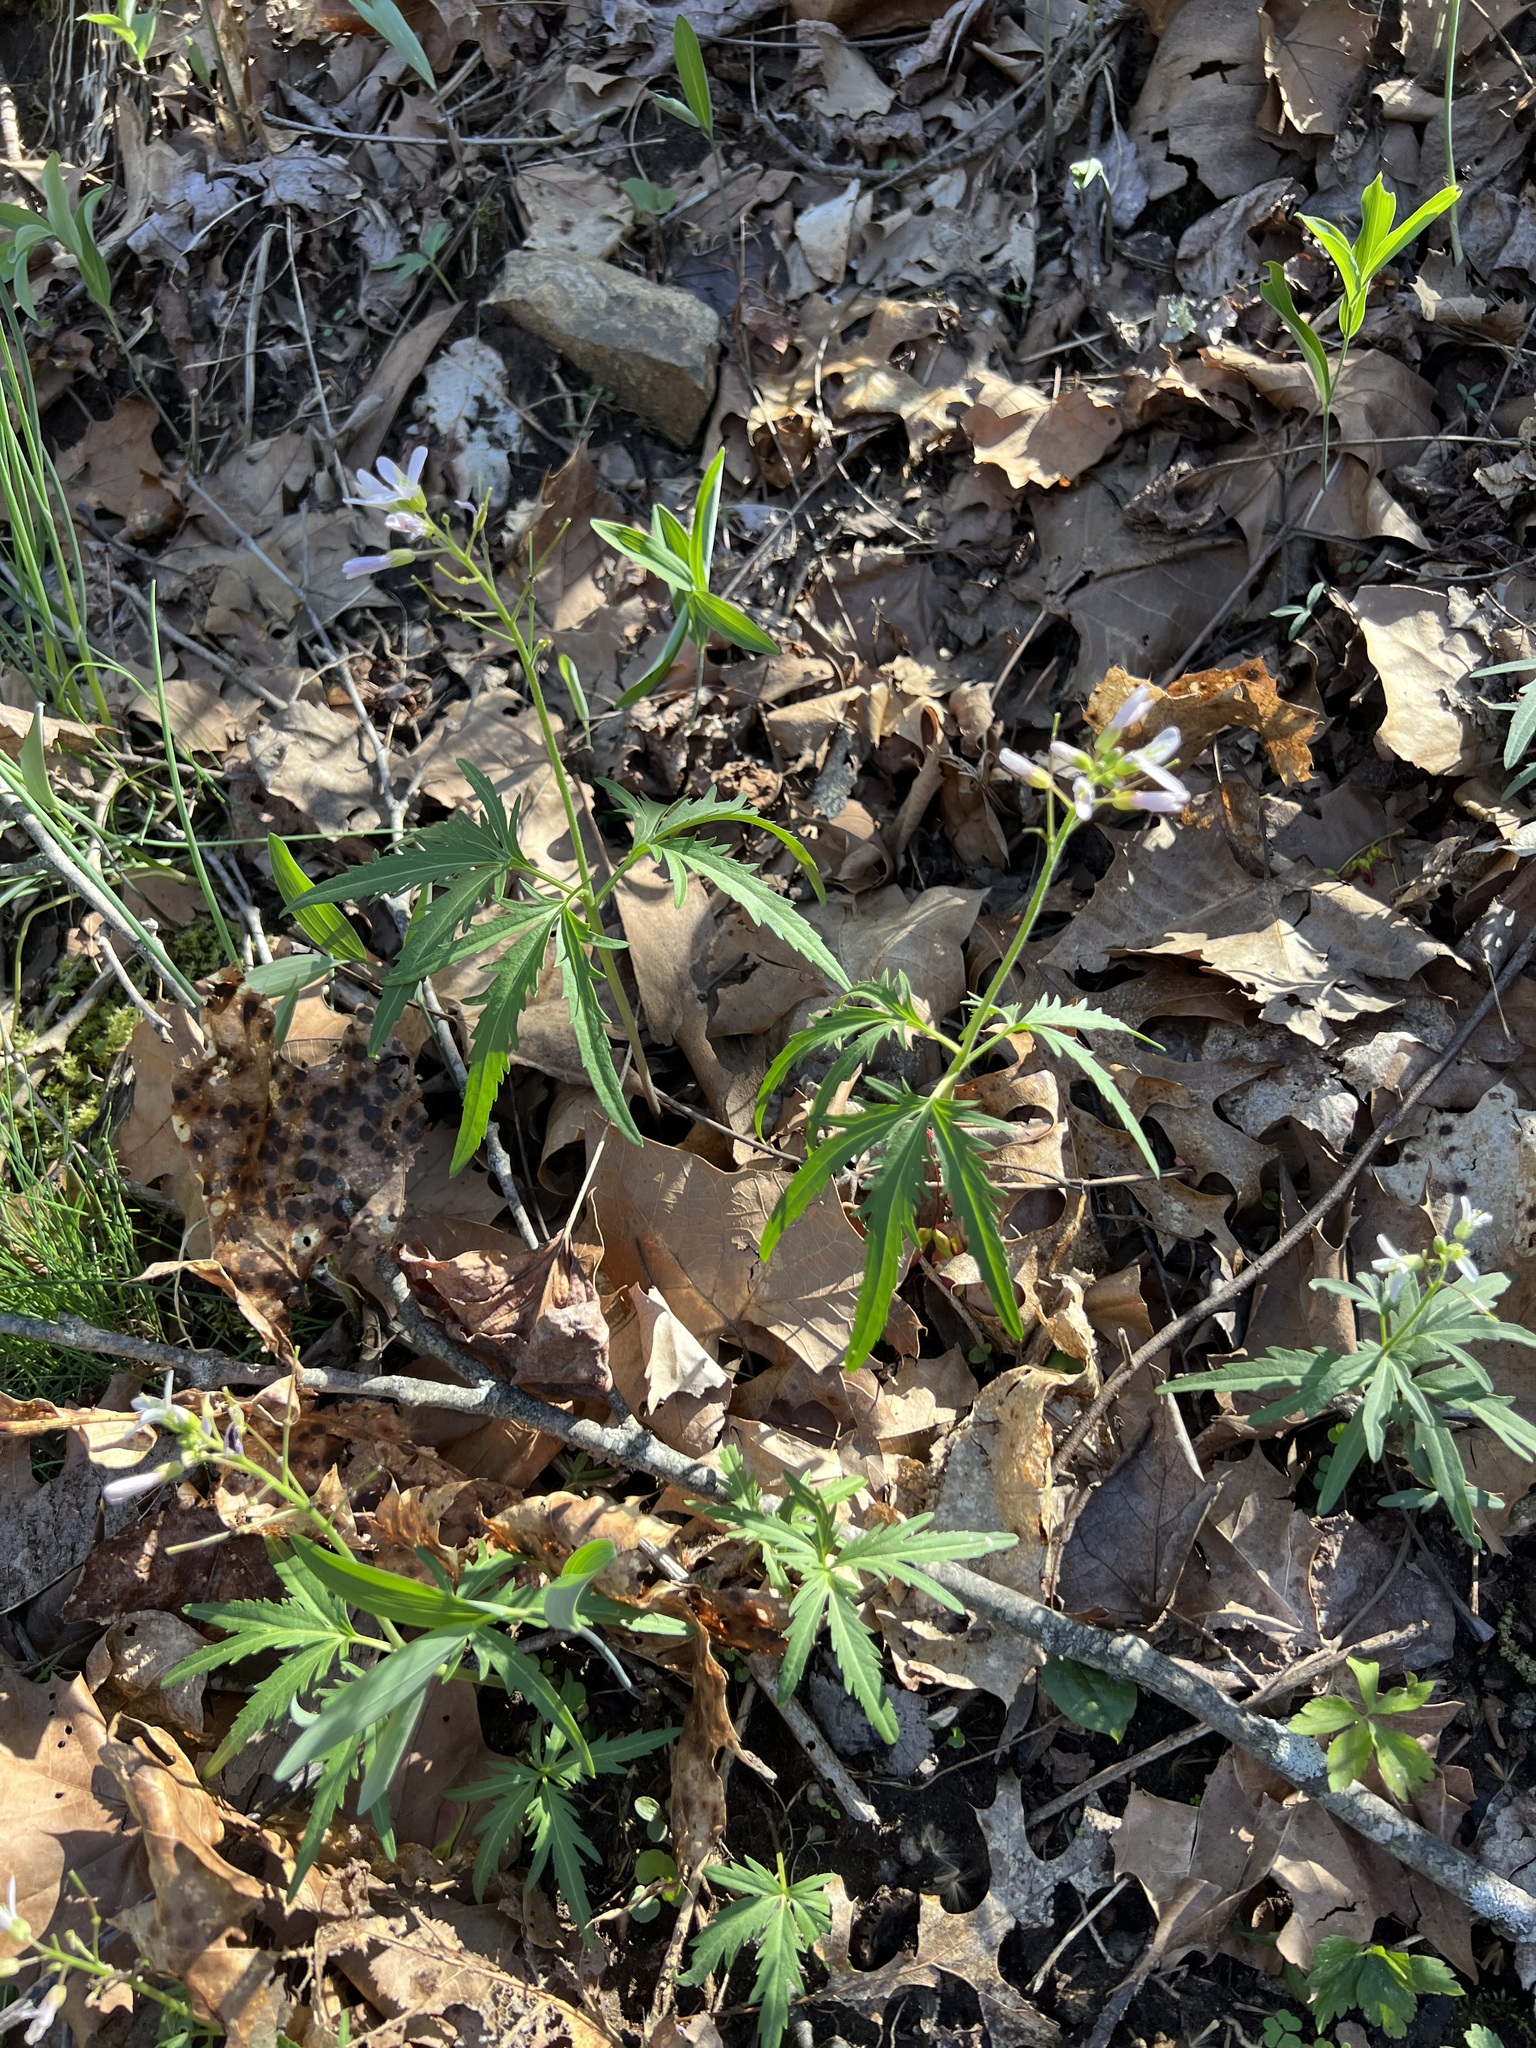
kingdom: Plantae
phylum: Tracheophyta
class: Magnoliopsida
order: Brassicales
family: Brassicaceae
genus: Cardamine
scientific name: Cardamine concatenata
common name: Cut-leaf toothcup
